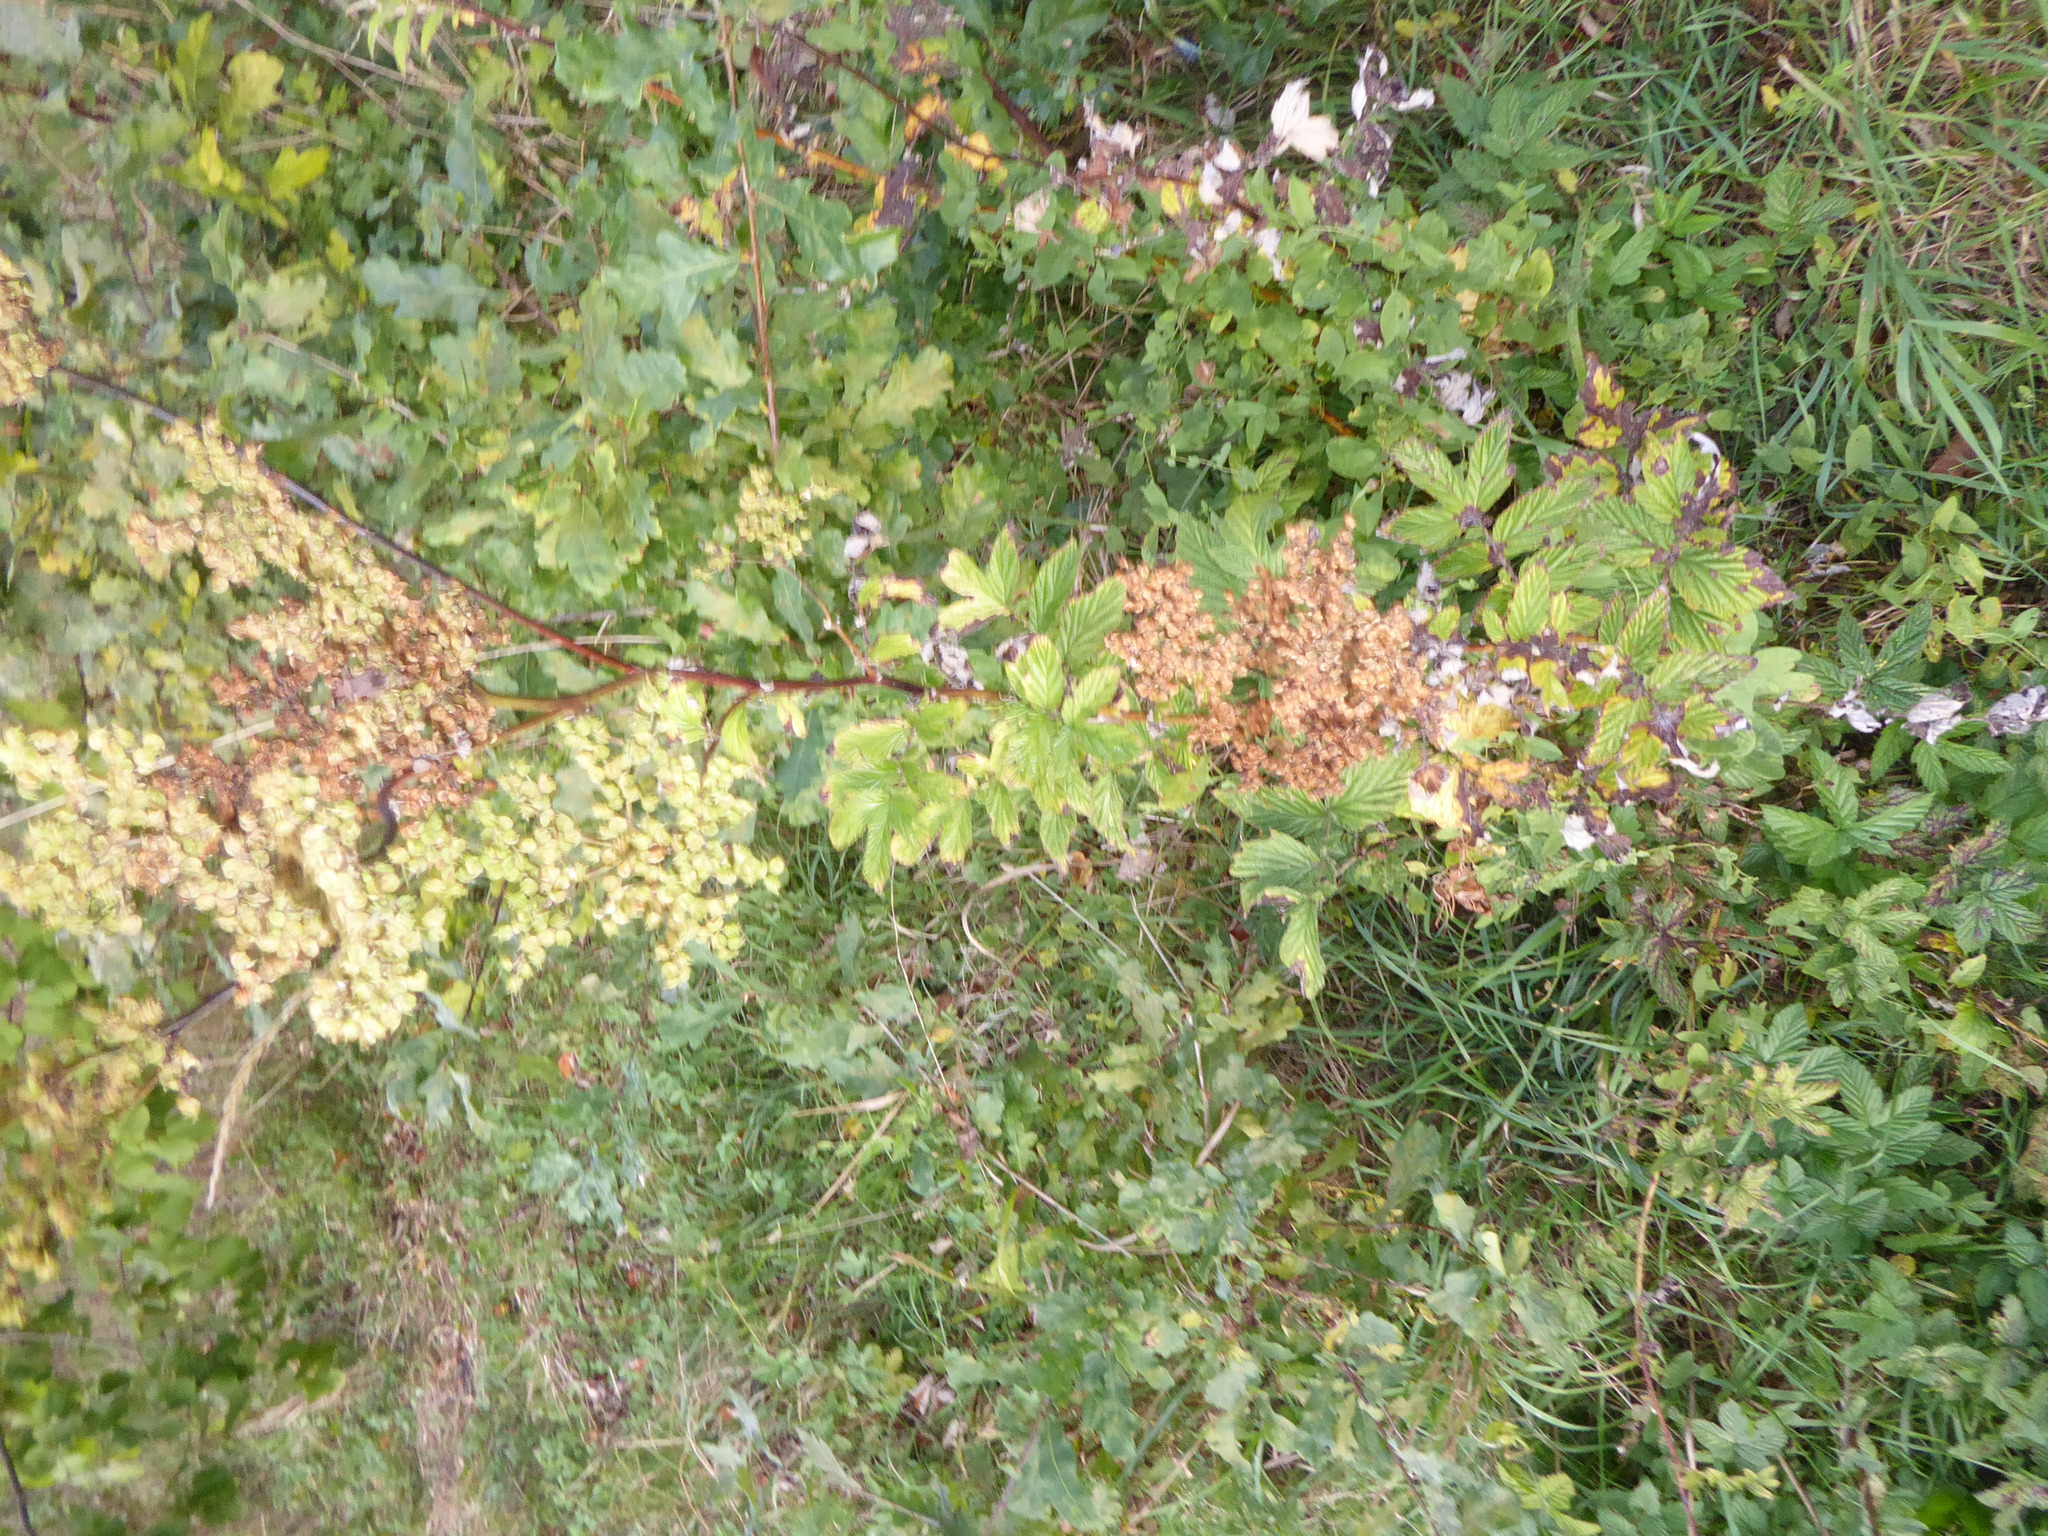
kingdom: Plantae
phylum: Tracheophyta
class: Magnoliopsida
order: Rosales
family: Rosaceae
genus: Filipendula
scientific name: Filipendula ulmaria
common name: Meadowsweet
